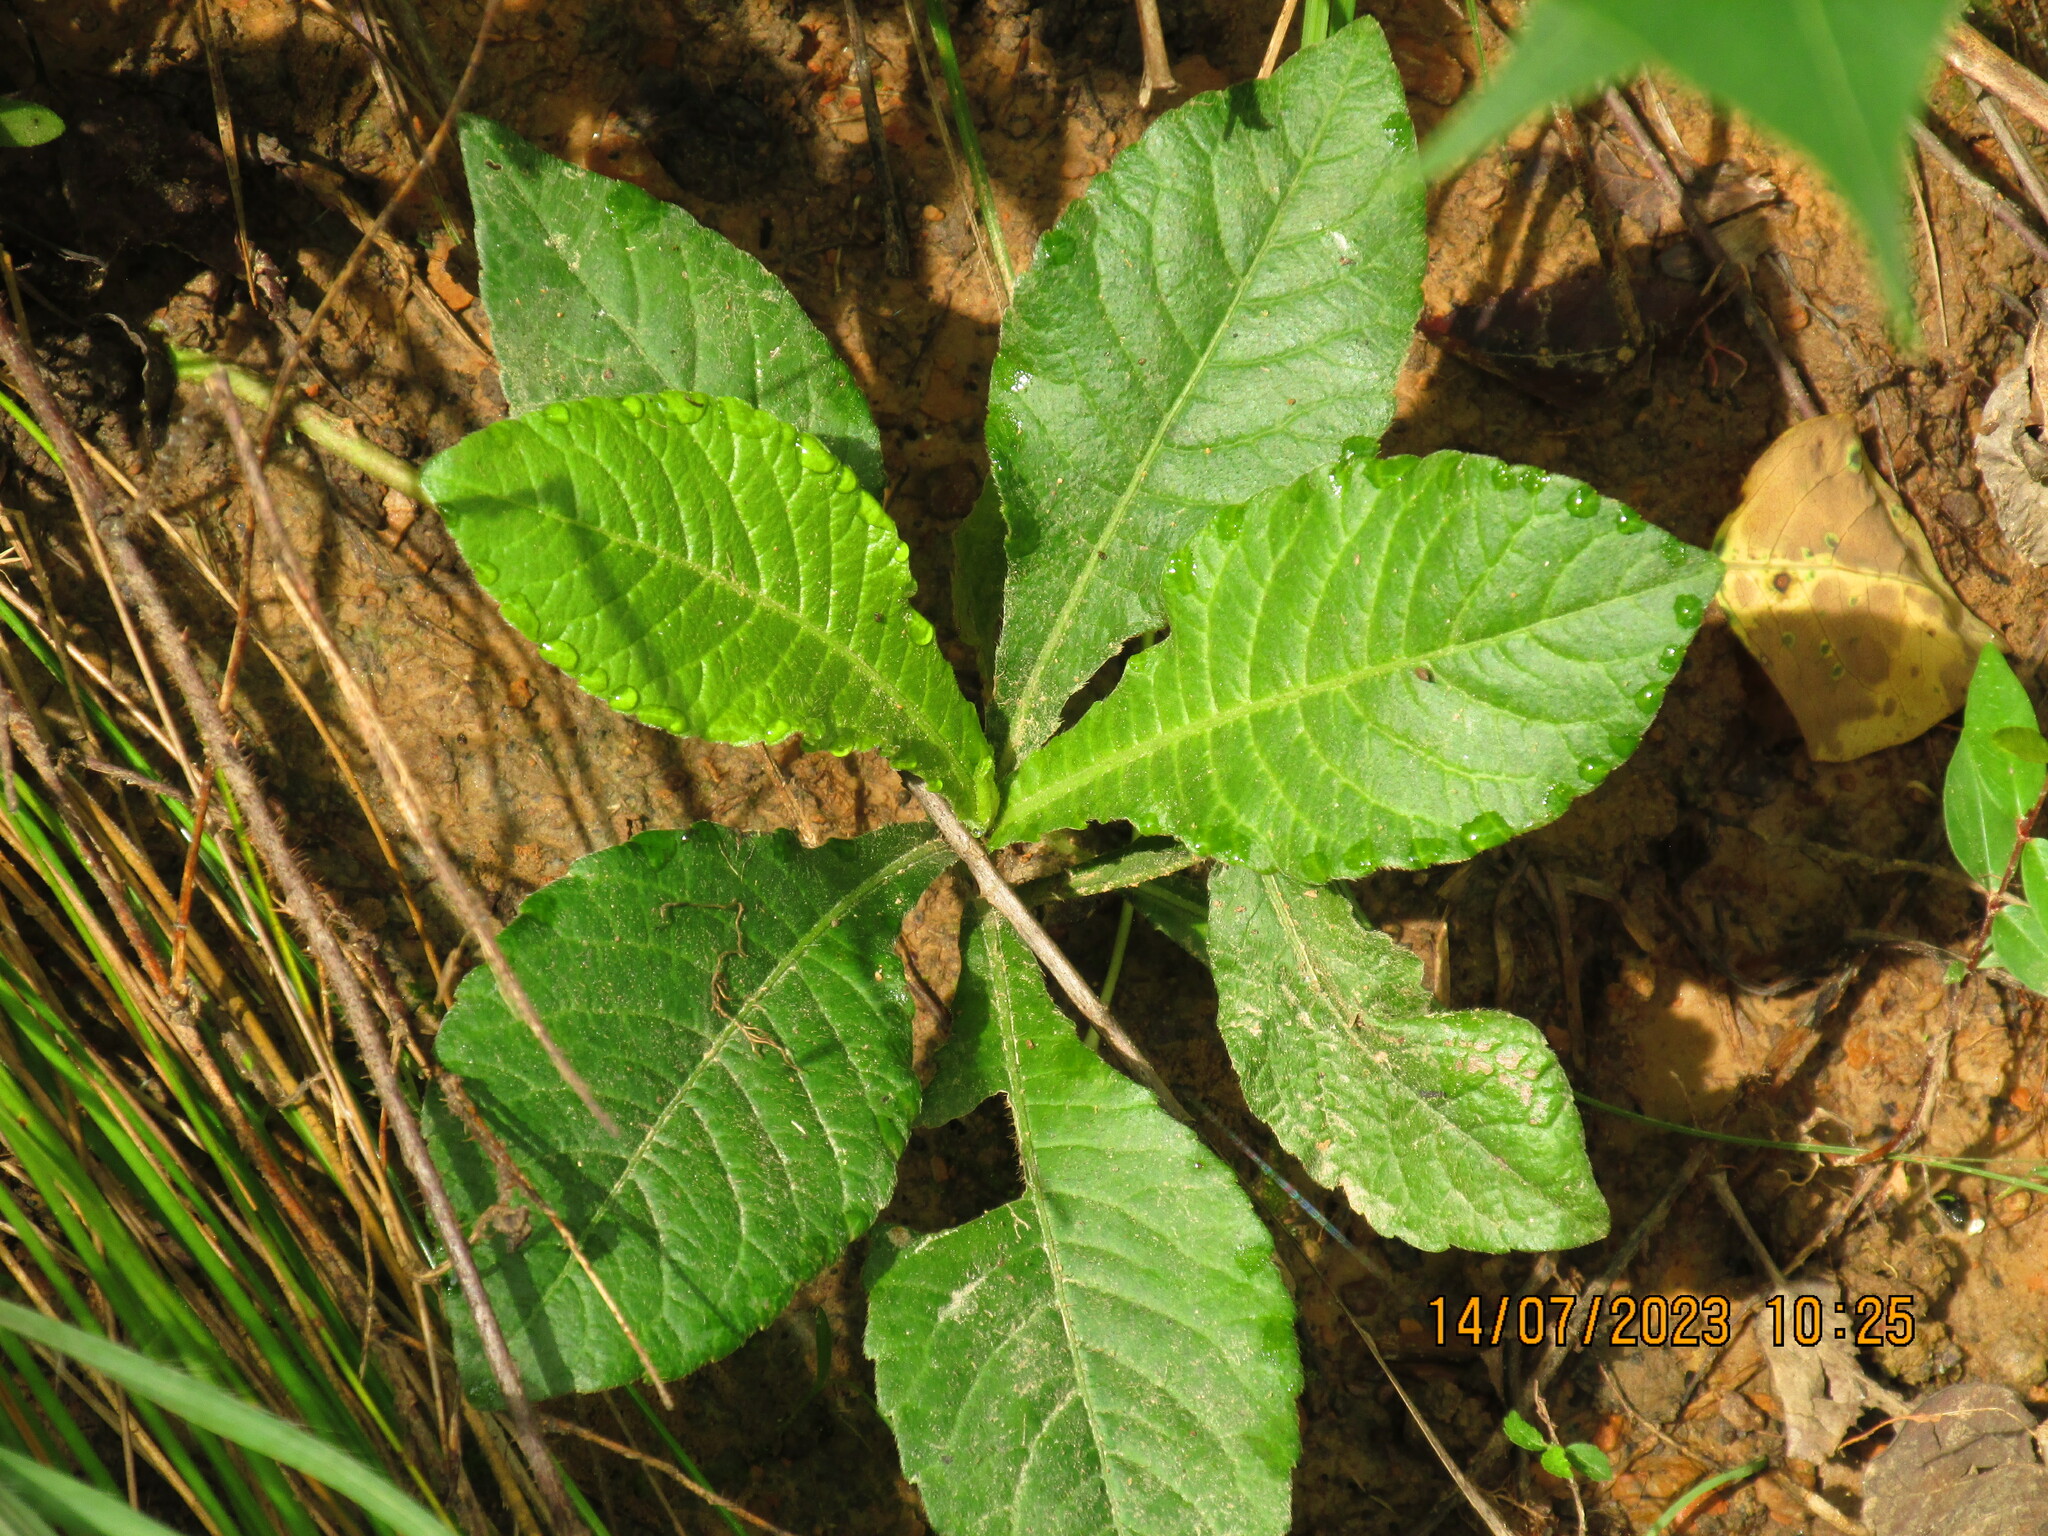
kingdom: Plantae
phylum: Tracheophyta
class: Magnoliopsida
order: Asterales
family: Asteraceae
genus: Elephantopus
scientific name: Elephantopus carolinianus
